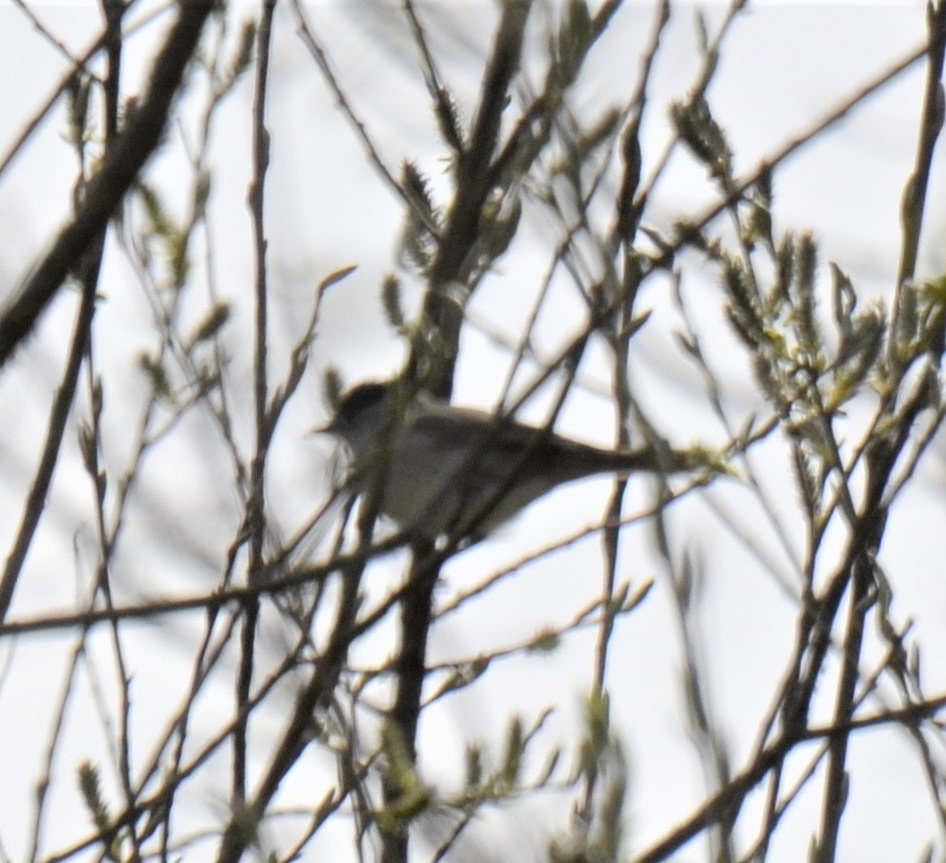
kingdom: Animalia
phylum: Chordata
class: Aves
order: Passeriformes
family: Sylviidae
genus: Sylvia
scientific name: Sylvia atricapilla
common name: Eurasian blackcap
